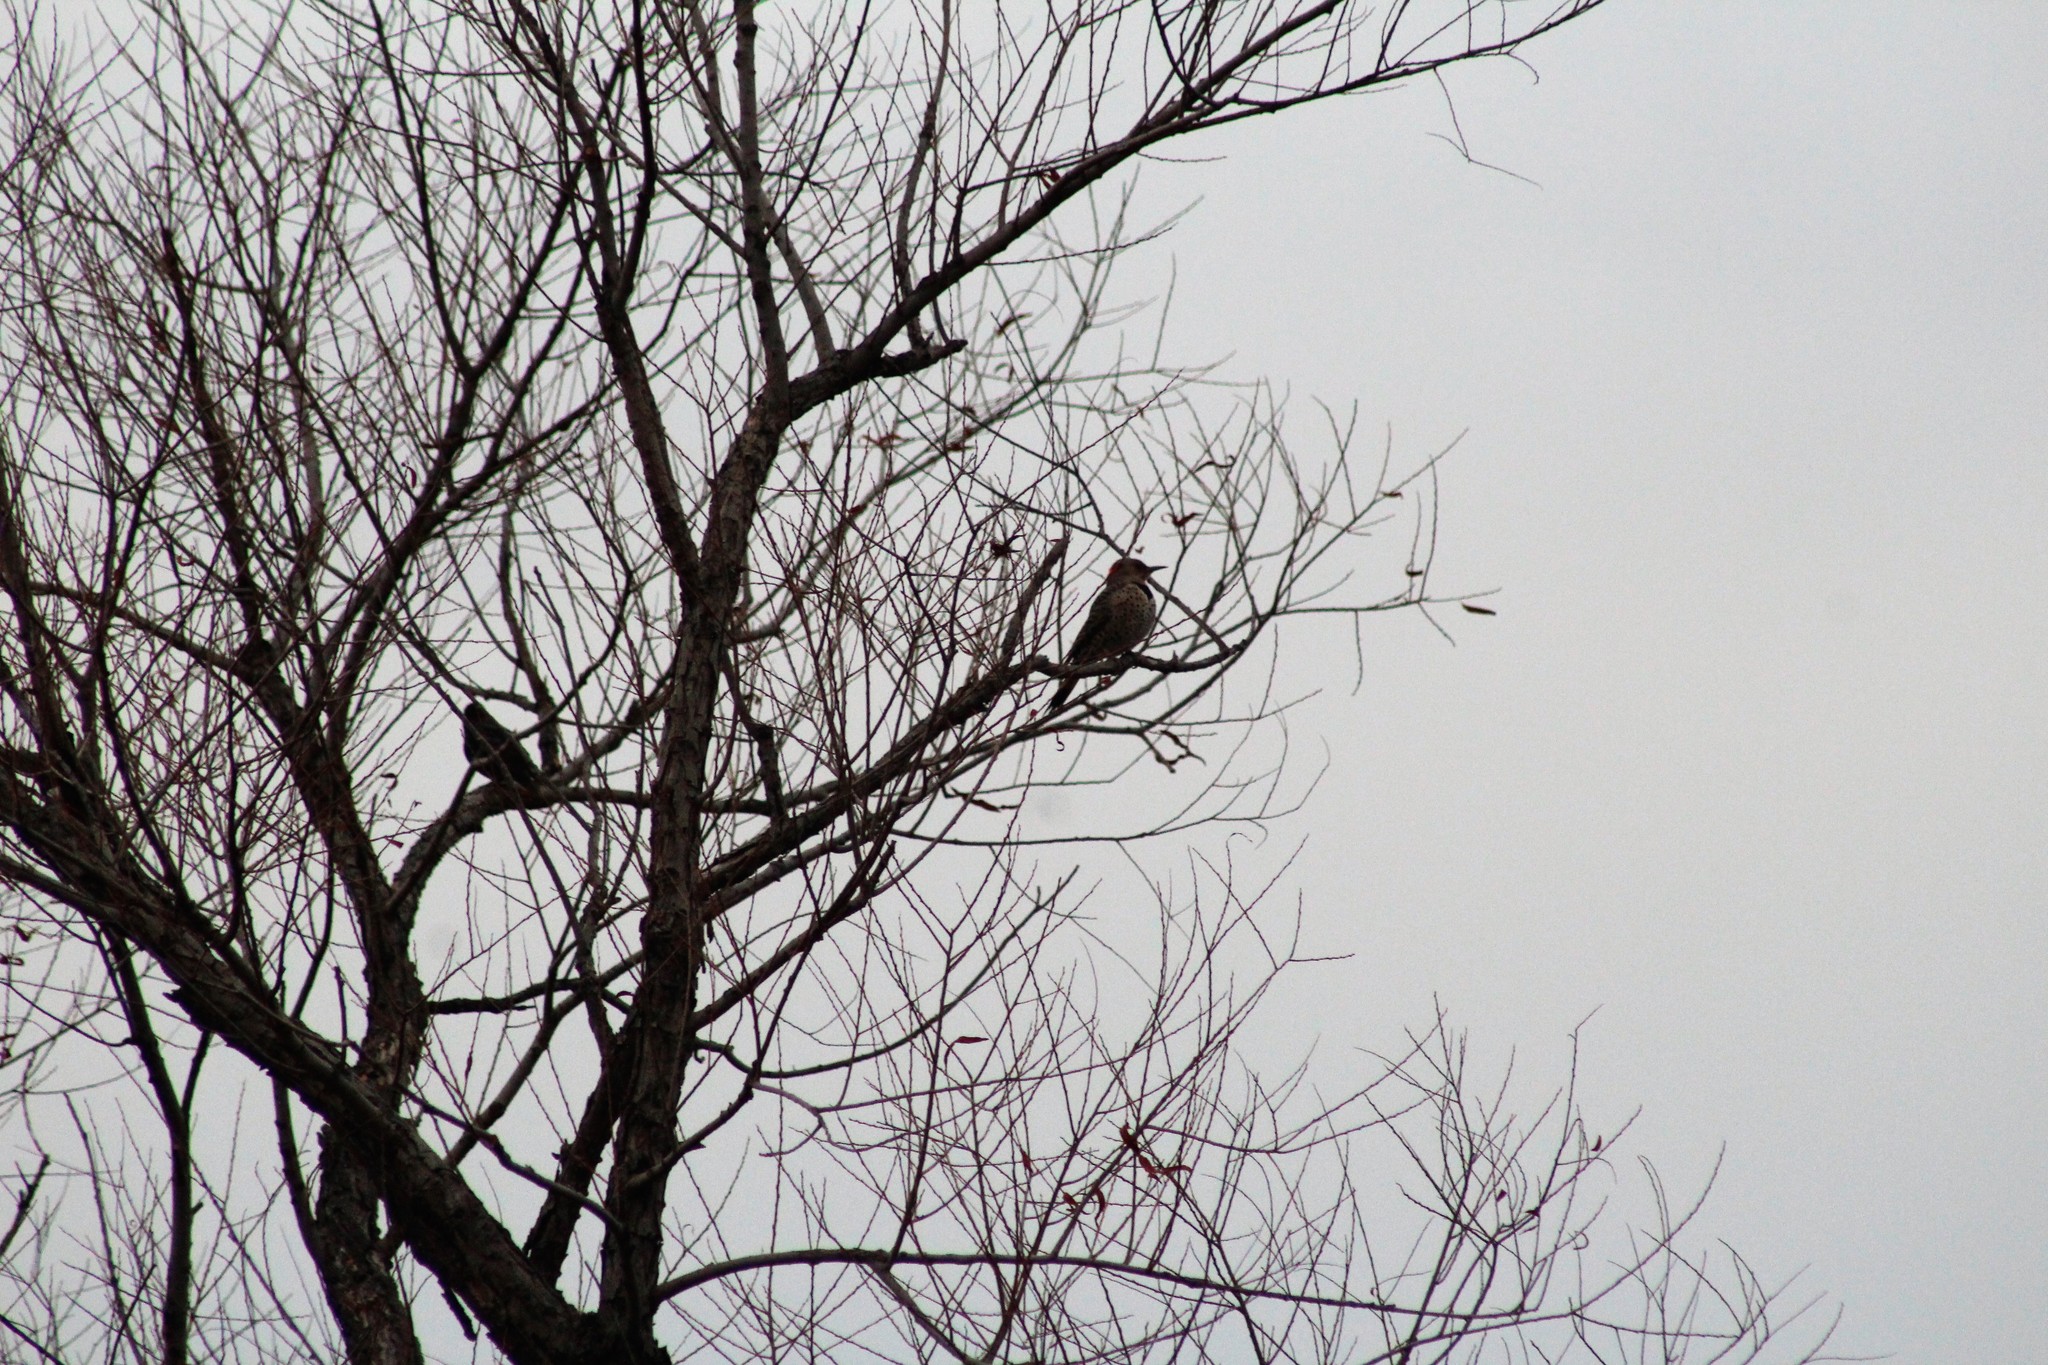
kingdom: Animalia
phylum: Chordata
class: Aves
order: Piciformes
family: Picidae
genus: Colaptes
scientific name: Colaptes auratus
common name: Northern flicker
